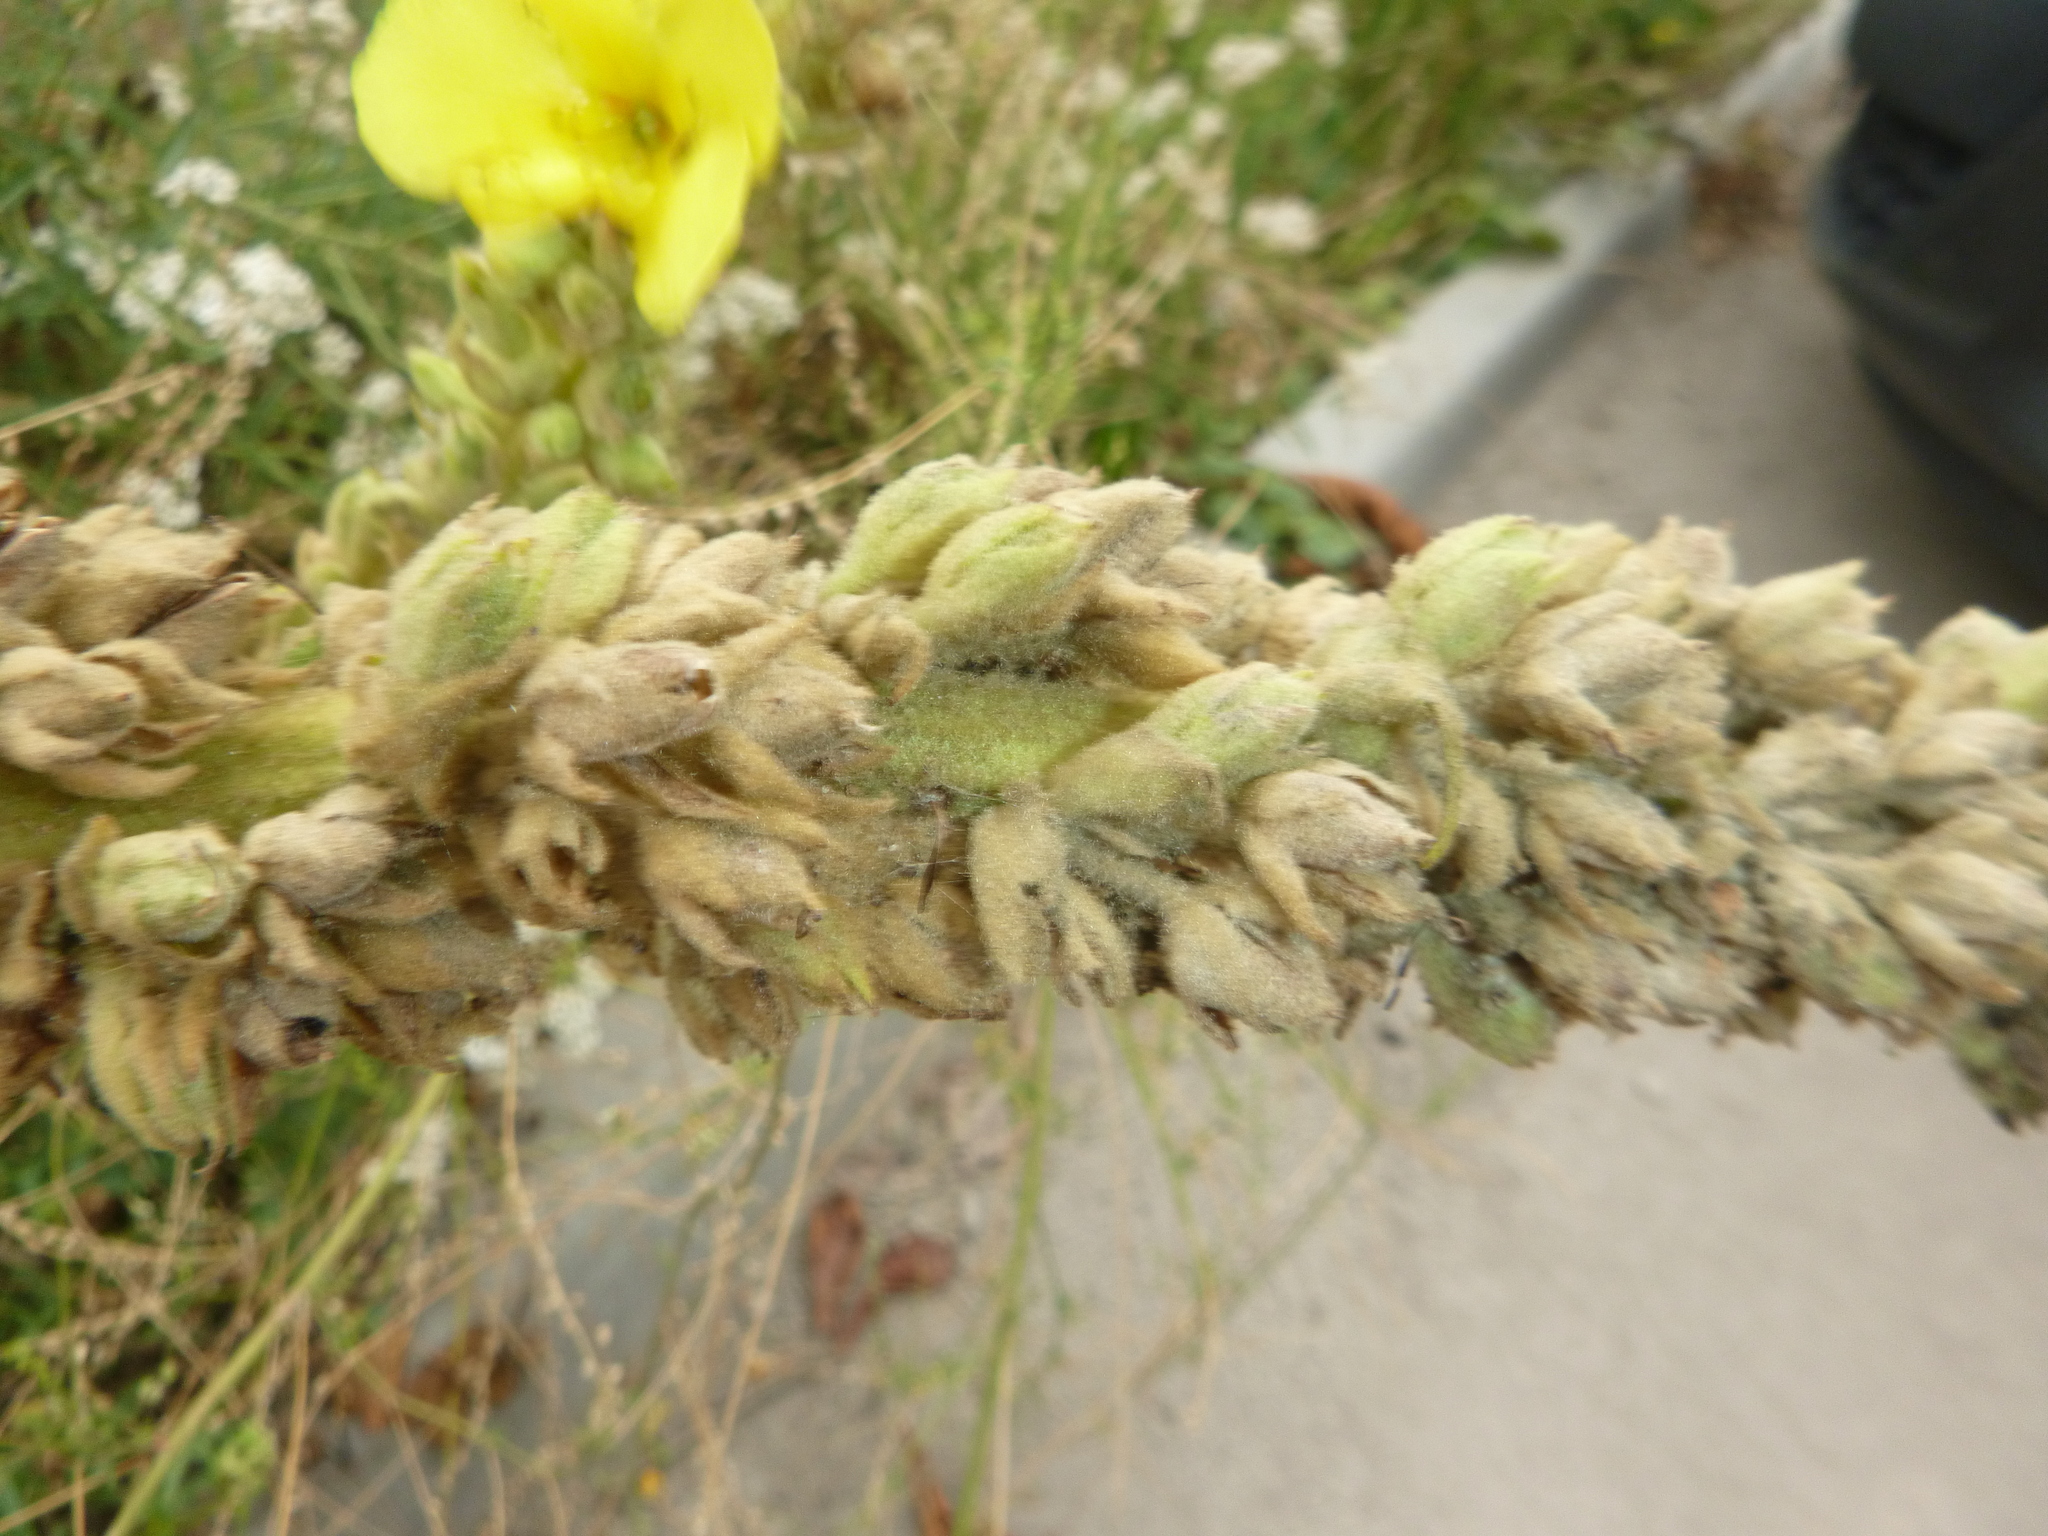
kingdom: Plantae
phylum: Tracheophyta
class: Magnoliopsida
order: Lamiales
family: Scrophulariaceae
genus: Verbascum
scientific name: Verbascum phlomoides
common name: Orange mullein
